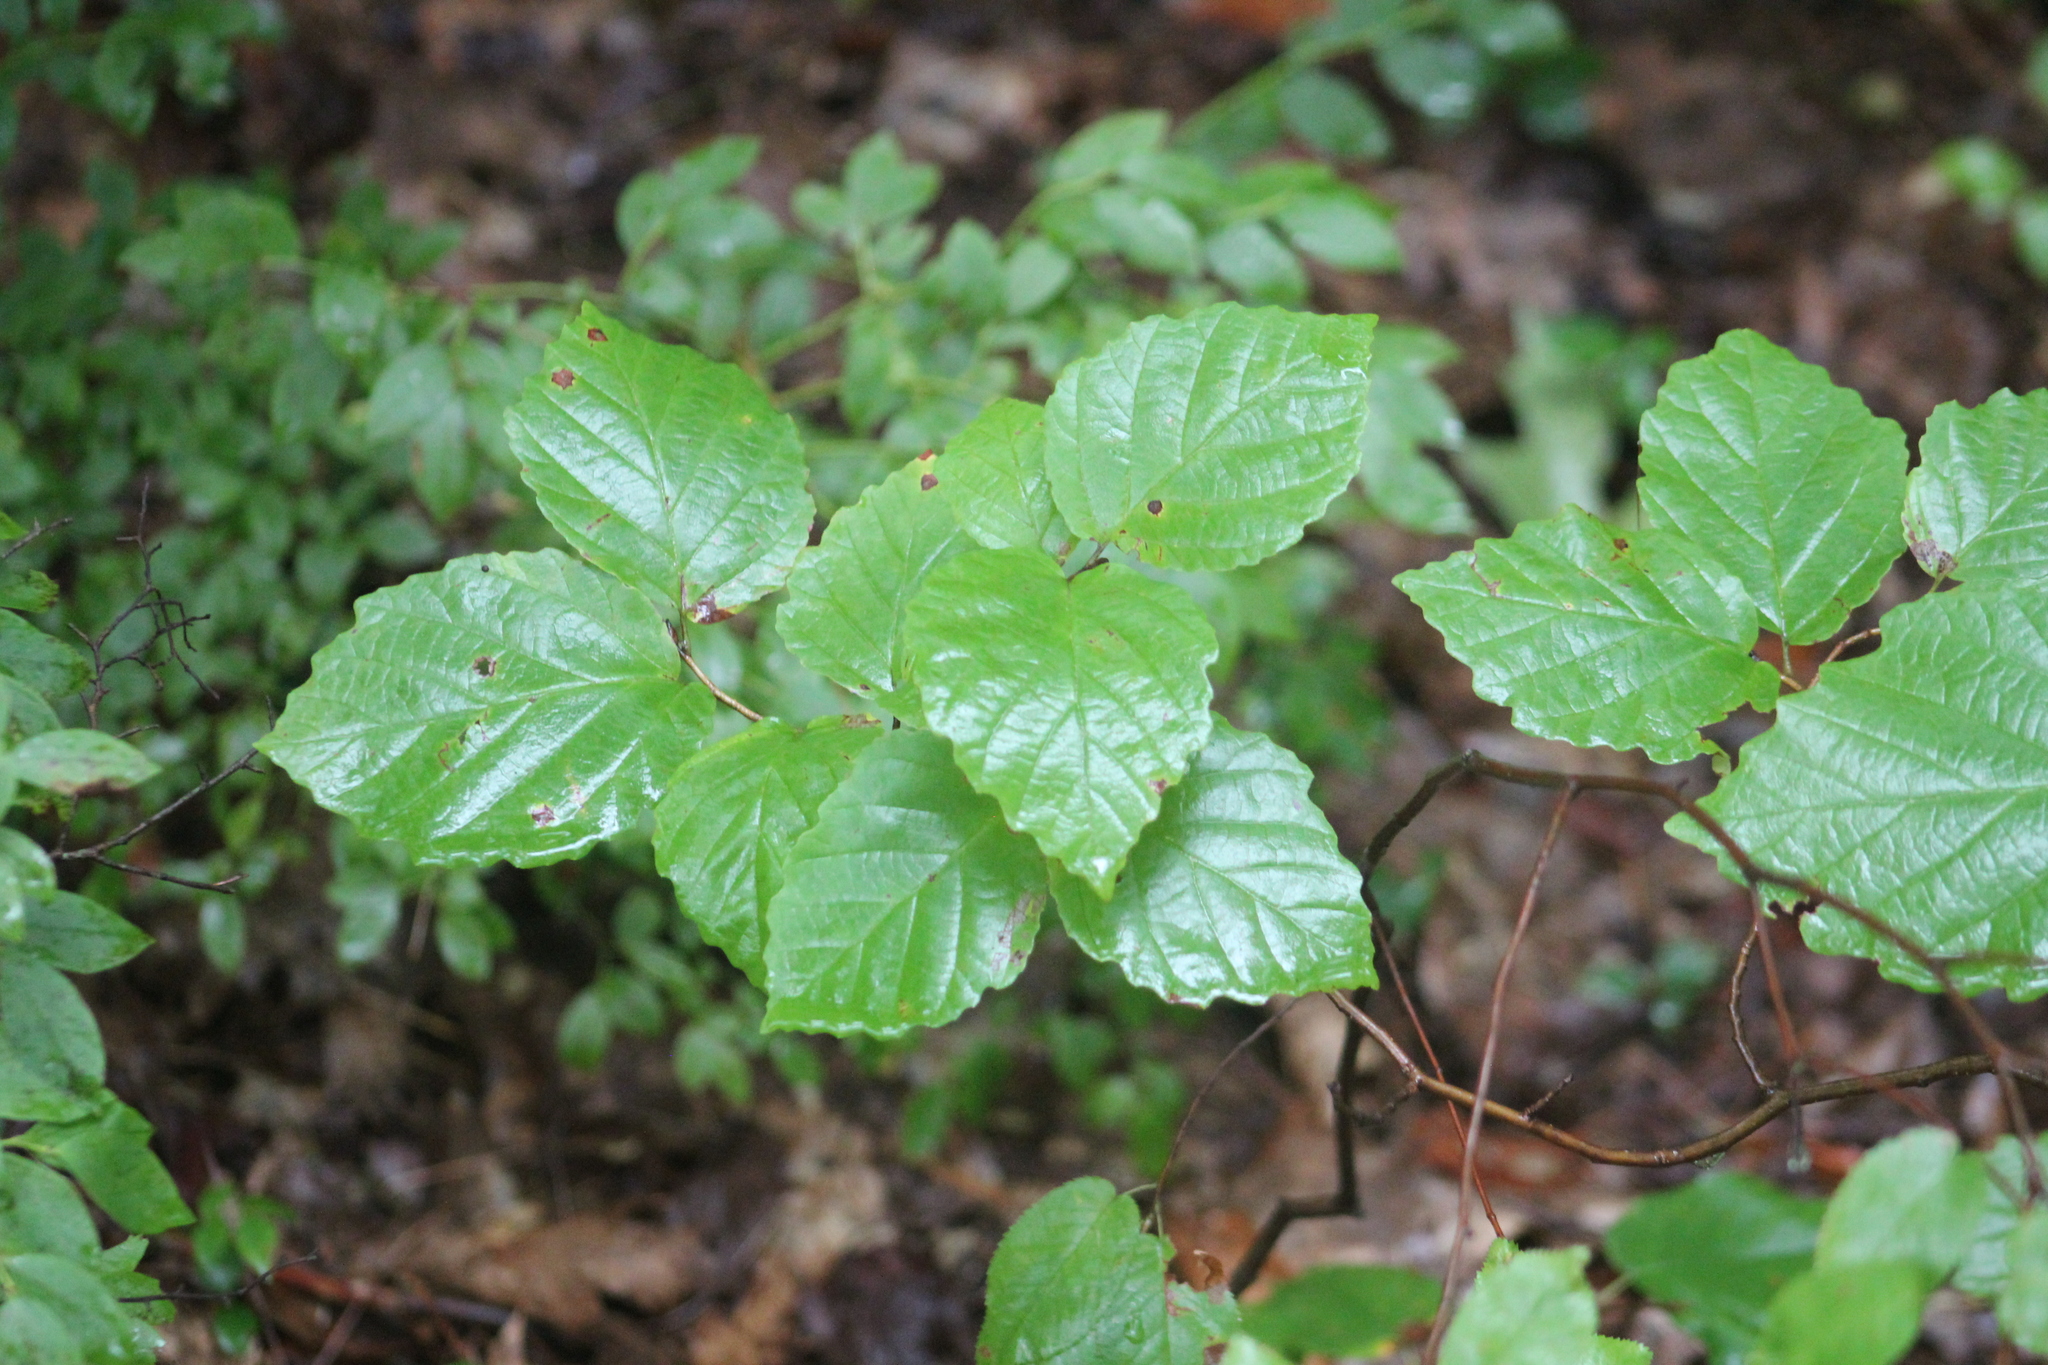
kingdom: Plantae
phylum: Tracheophyta
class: Magnoliopsida
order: Saxifragales
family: Hamamelidaceae
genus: Hamamelis
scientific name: Hamamelis virginiana
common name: Witch-hazel
